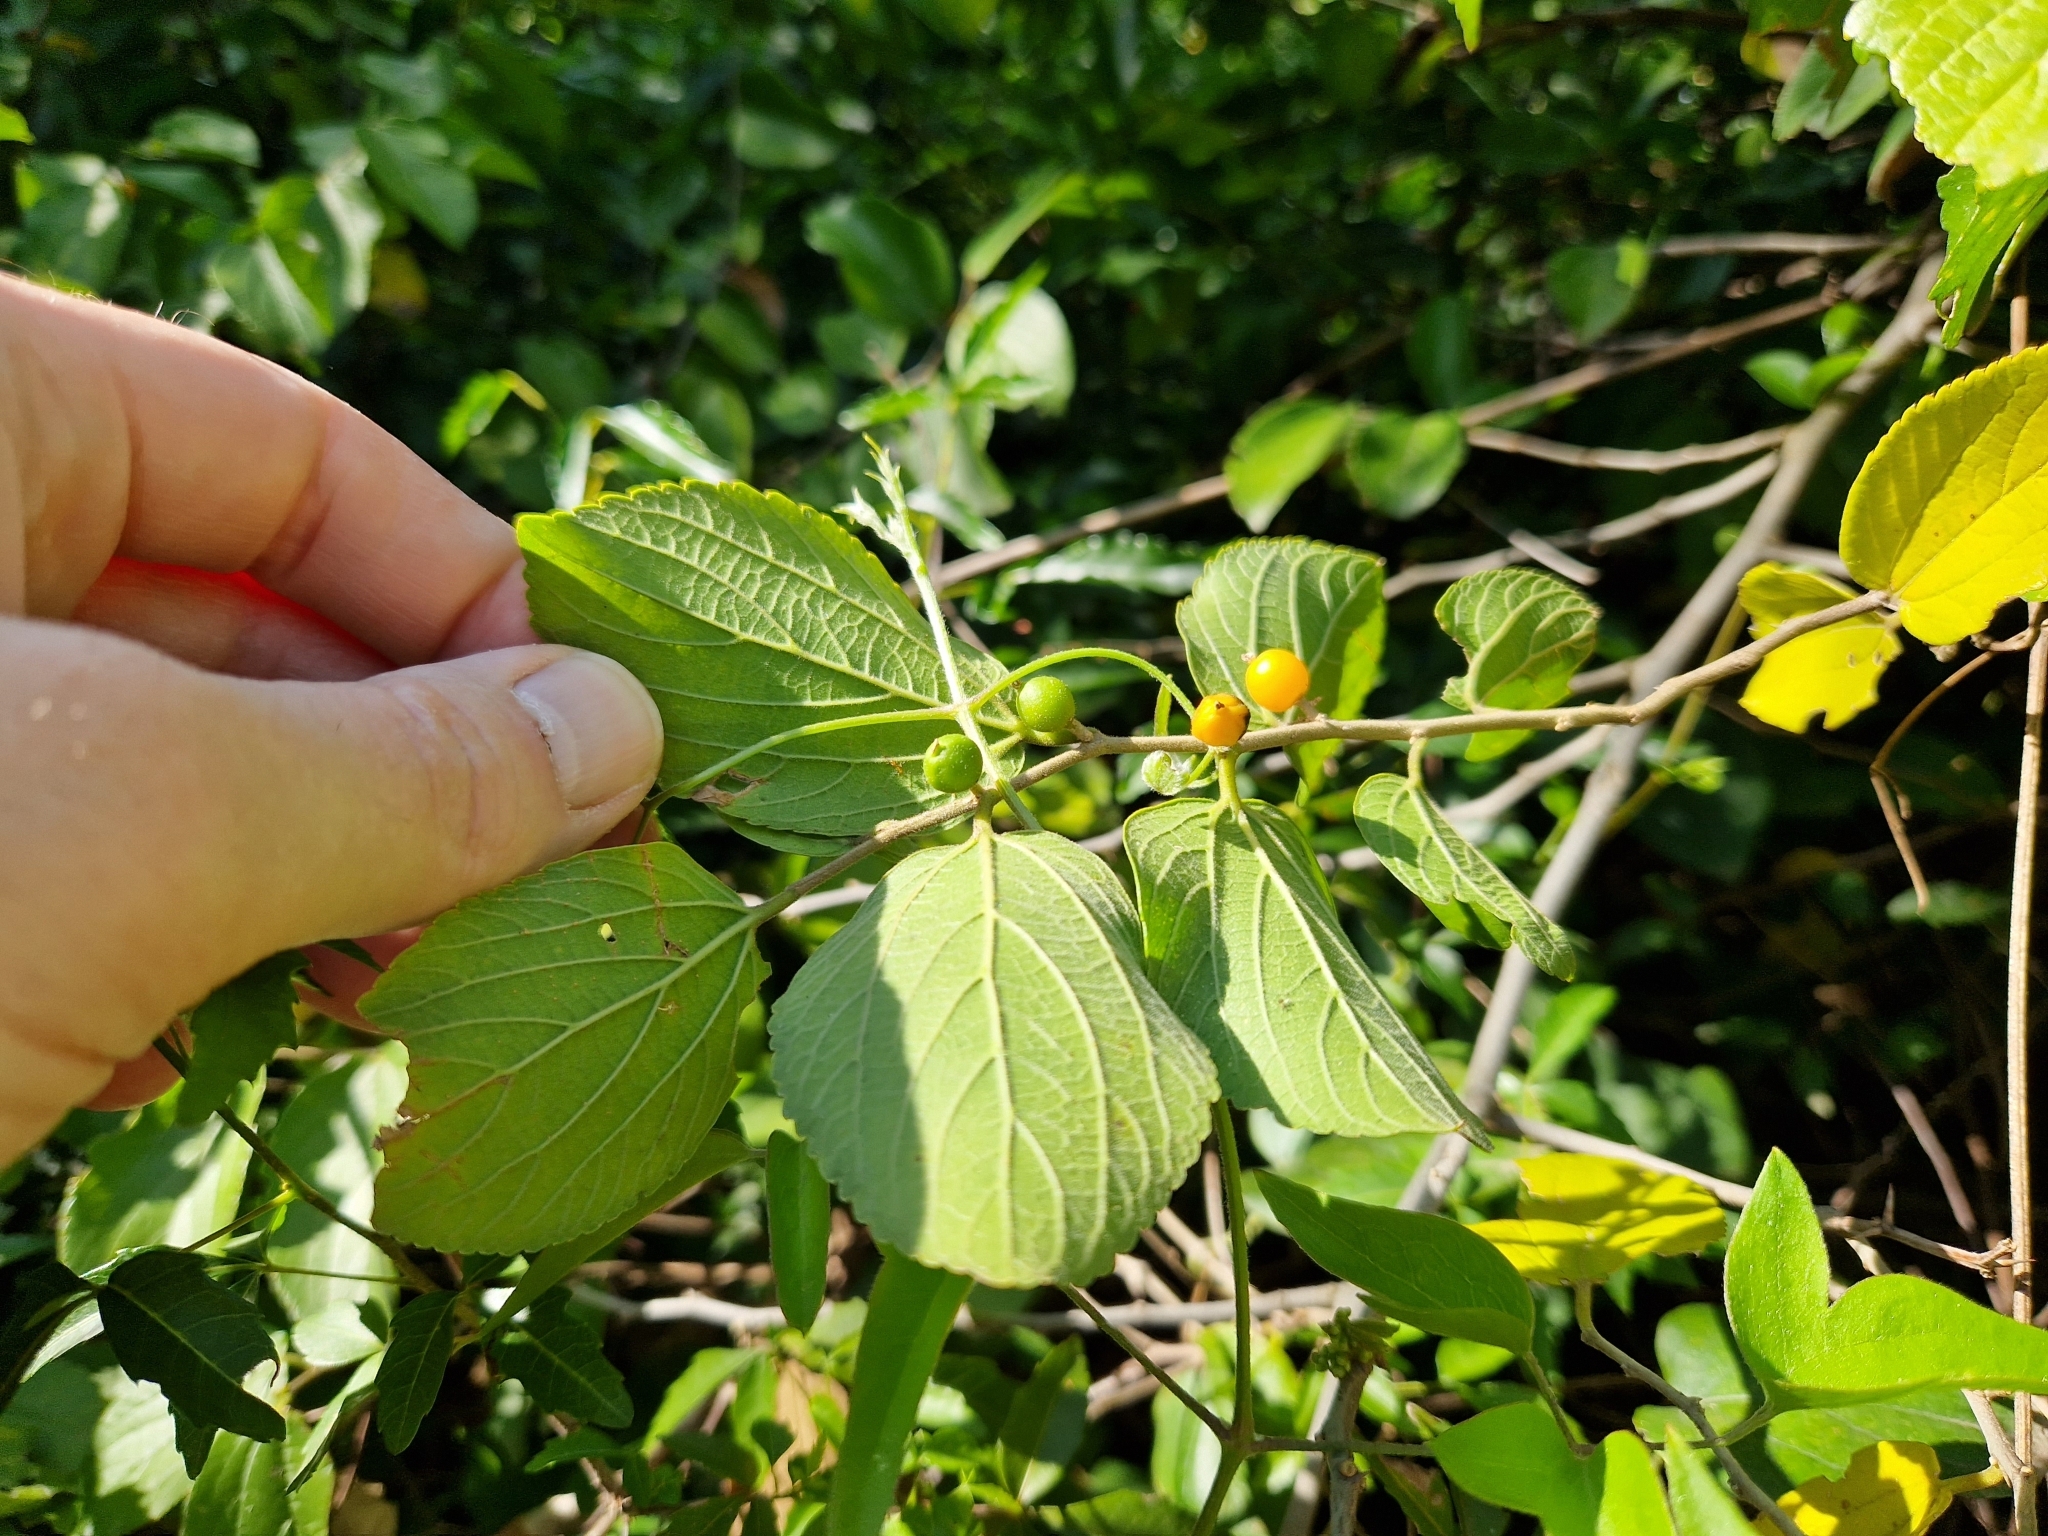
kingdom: Plantae
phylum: Tracheophyta
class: Magnoliopsida
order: Rosales
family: Cannabaceae
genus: Celtis
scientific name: Celtis iguanaea
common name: Iguana hackberry
